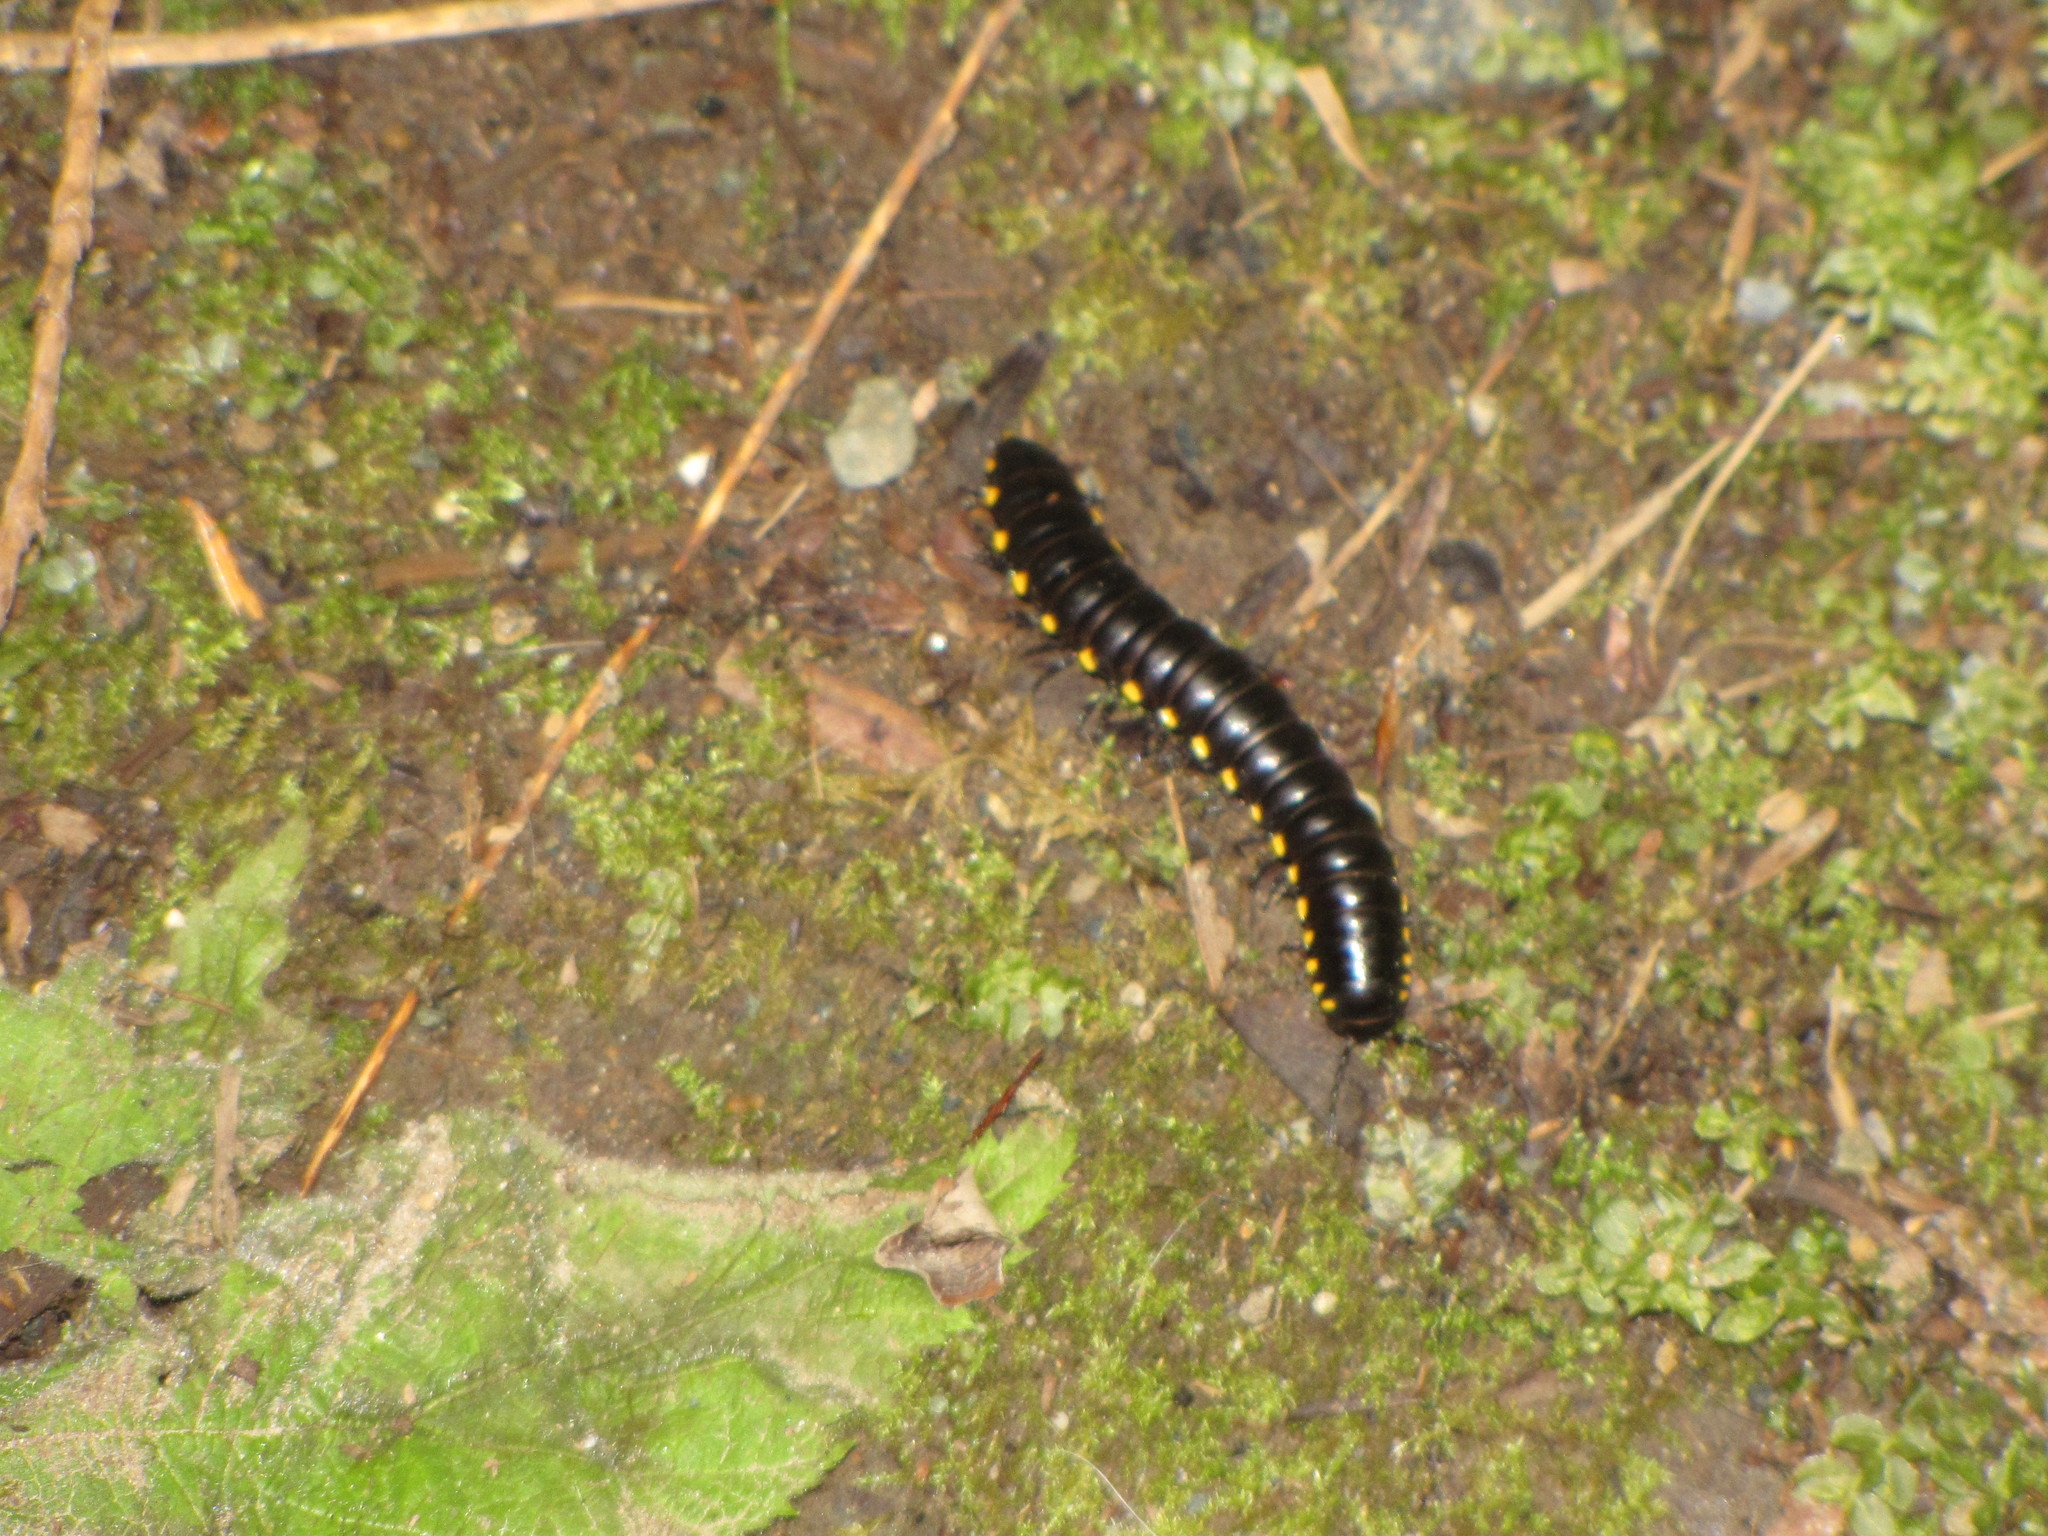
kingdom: Animalia
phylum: Arthropoda
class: Diplopoda
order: Polydesmida
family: Xystodesmidae
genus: Harpaphe
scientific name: Harpaphe haydeniana
